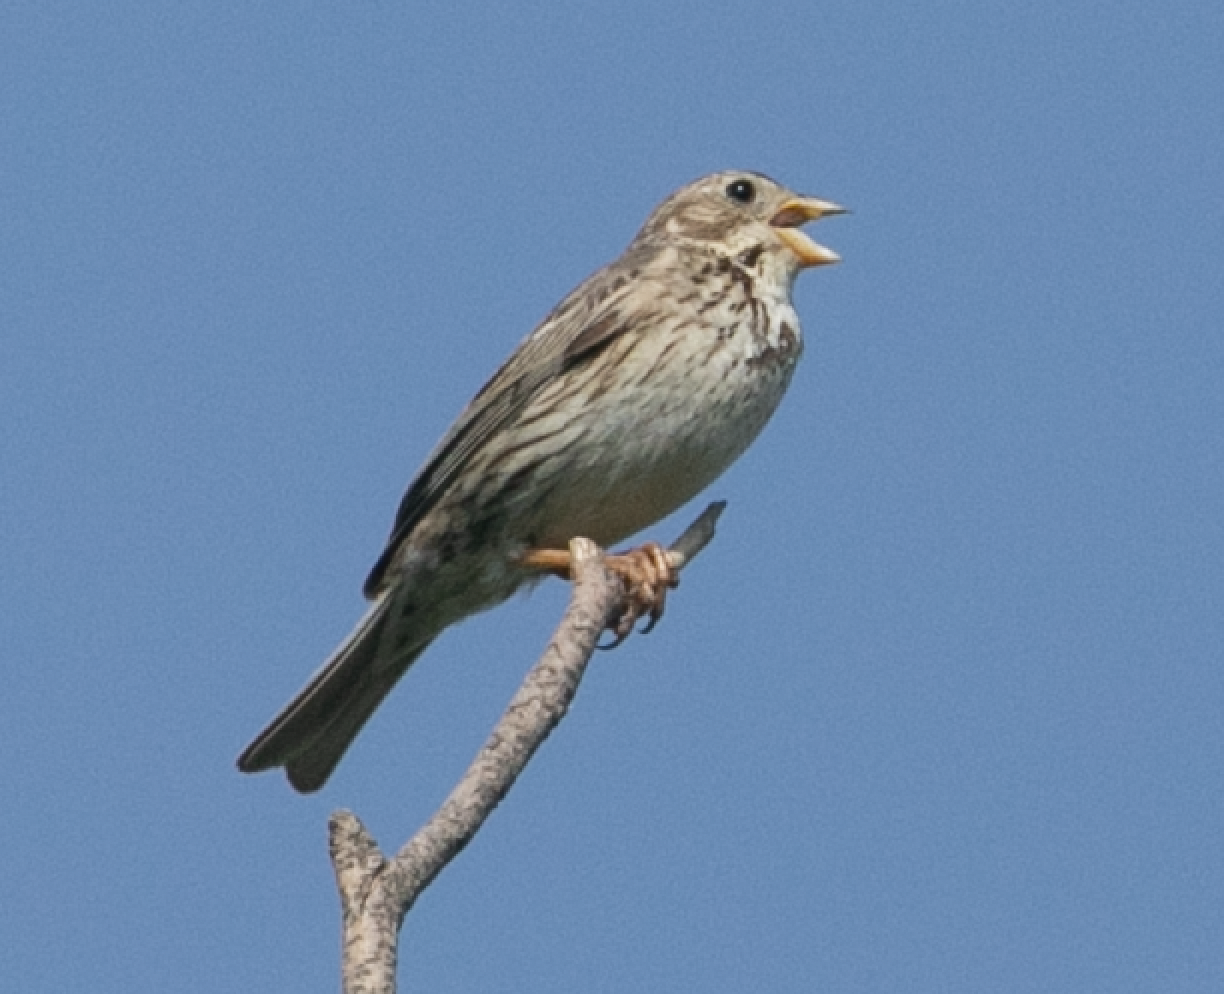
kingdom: Animalia
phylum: Chordata
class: Aves
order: Passeriformes
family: Emberizidae
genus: Emberiza
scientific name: Emberiza calandra
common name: Corn bunting
